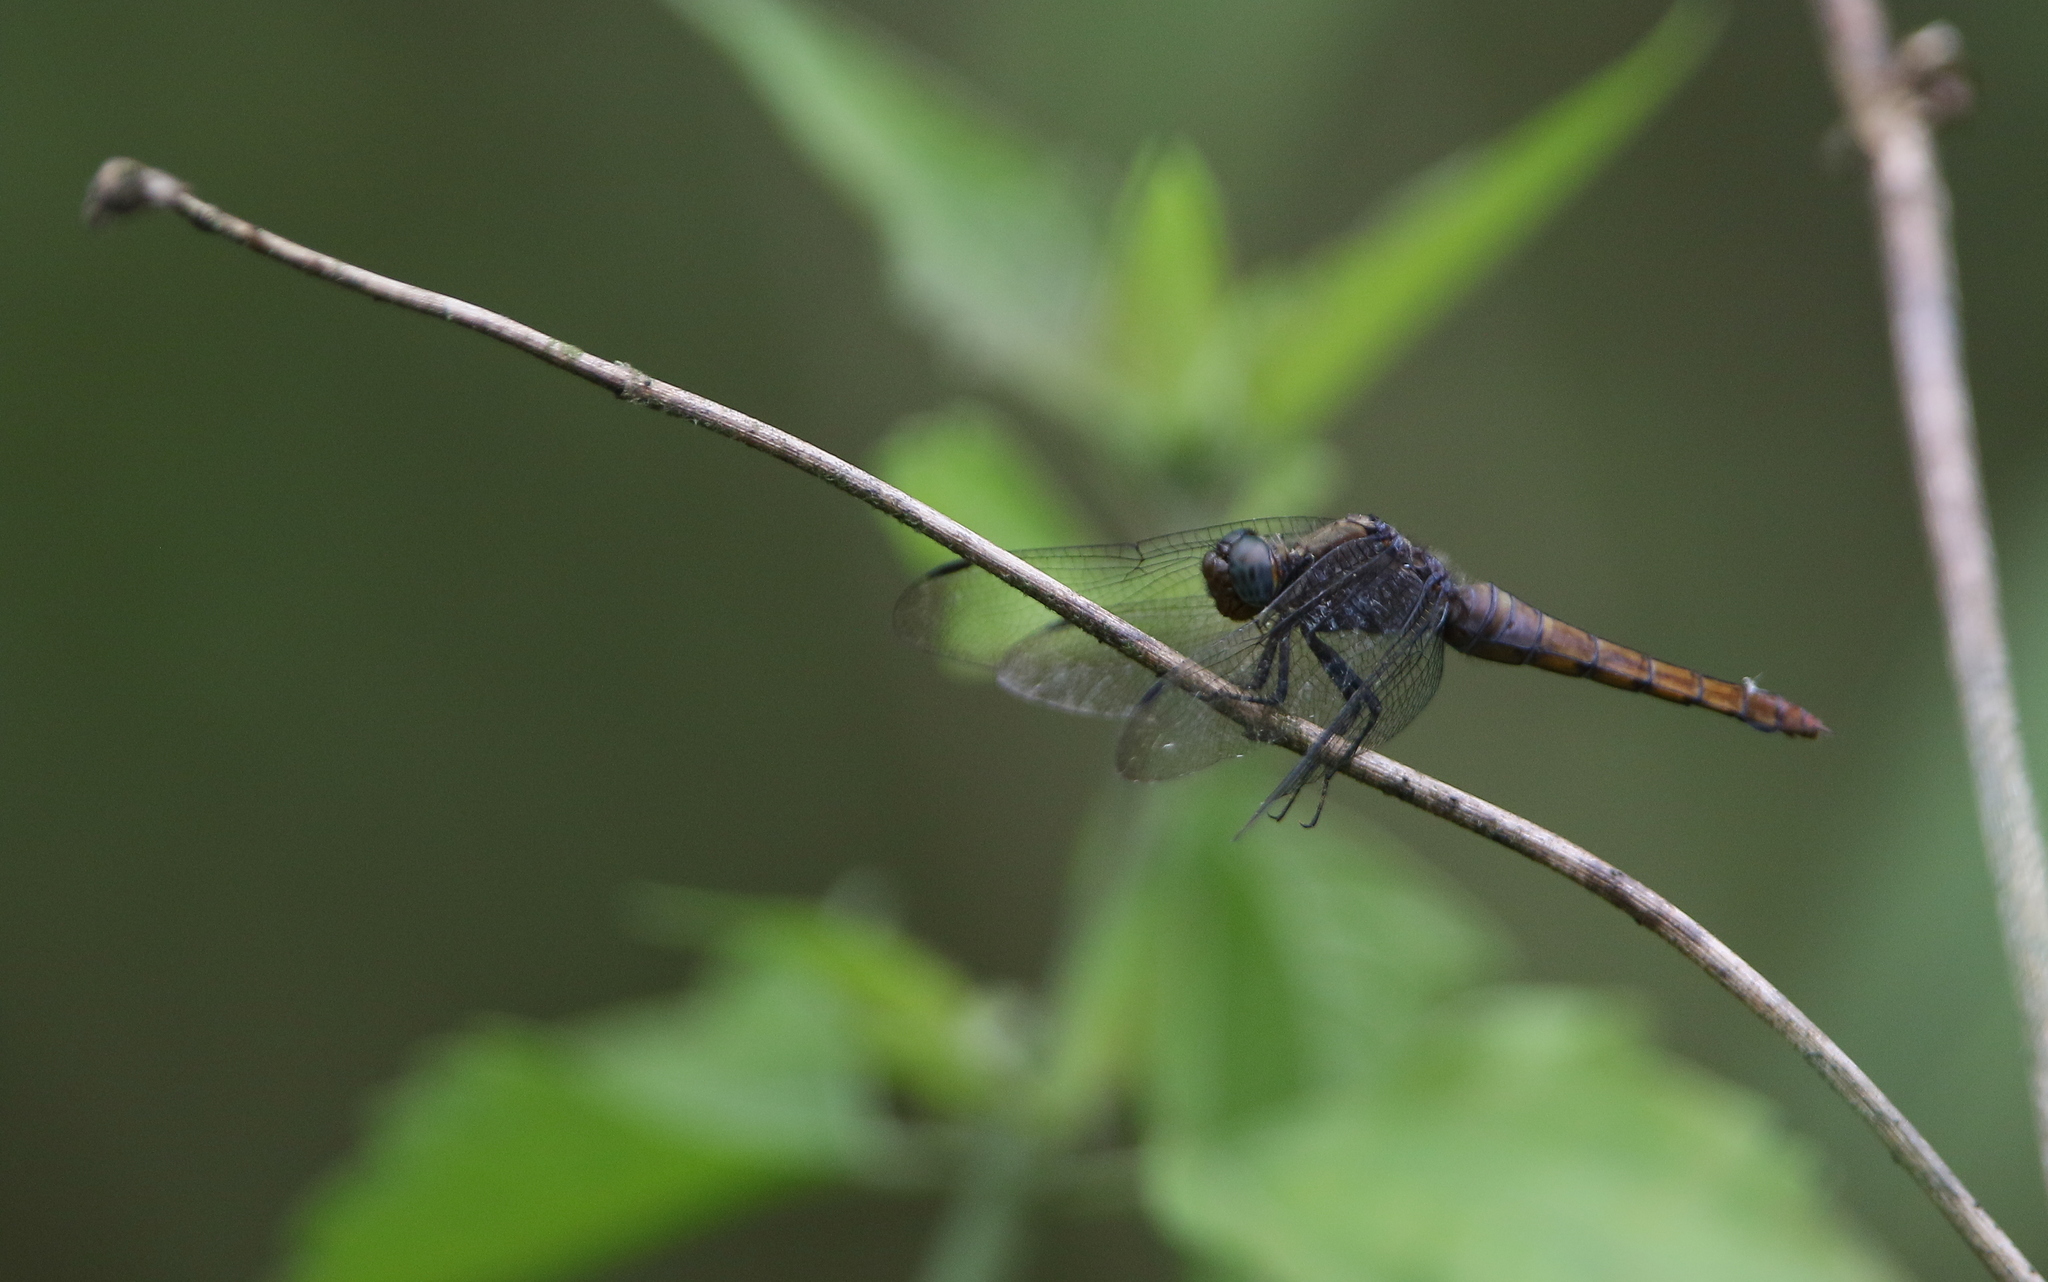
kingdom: Animalia
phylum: Arthropoda
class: Insecta
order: Odonata
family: Libellulidae
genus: Orthetrum
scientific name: Orthetrum pruinosum
